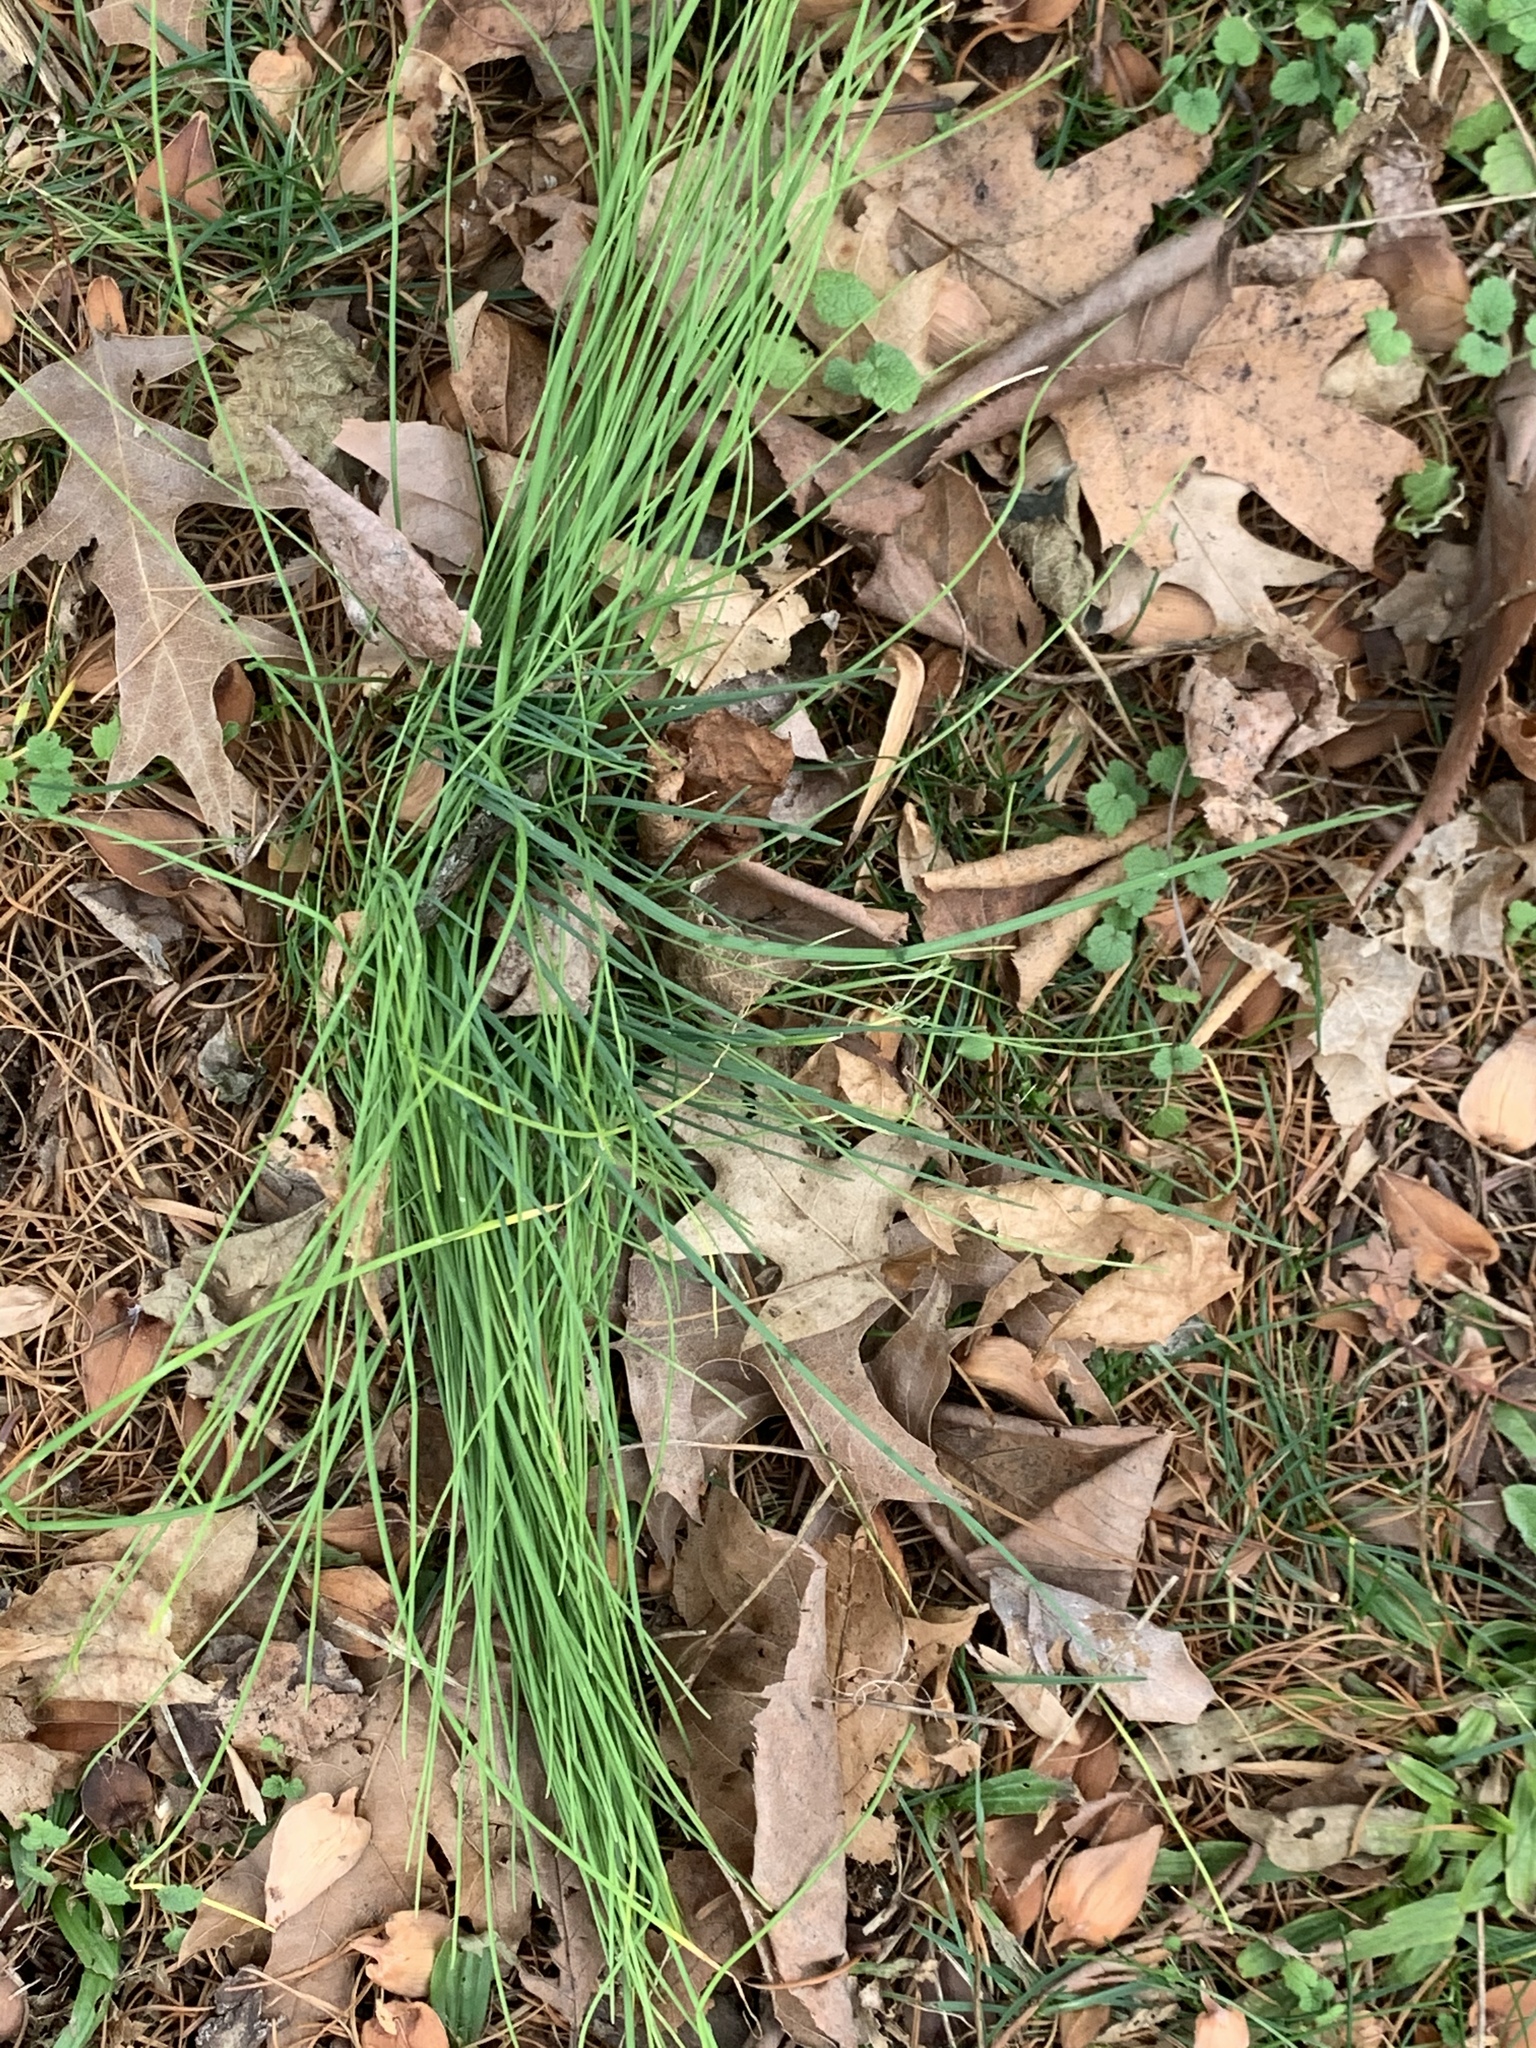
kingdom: Plantae
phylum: Tracheophyta
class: Liliopsida
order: Asparagales
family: Amaryllidaceae
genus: Allium
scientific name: Allium vineale
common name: Crow garlic
